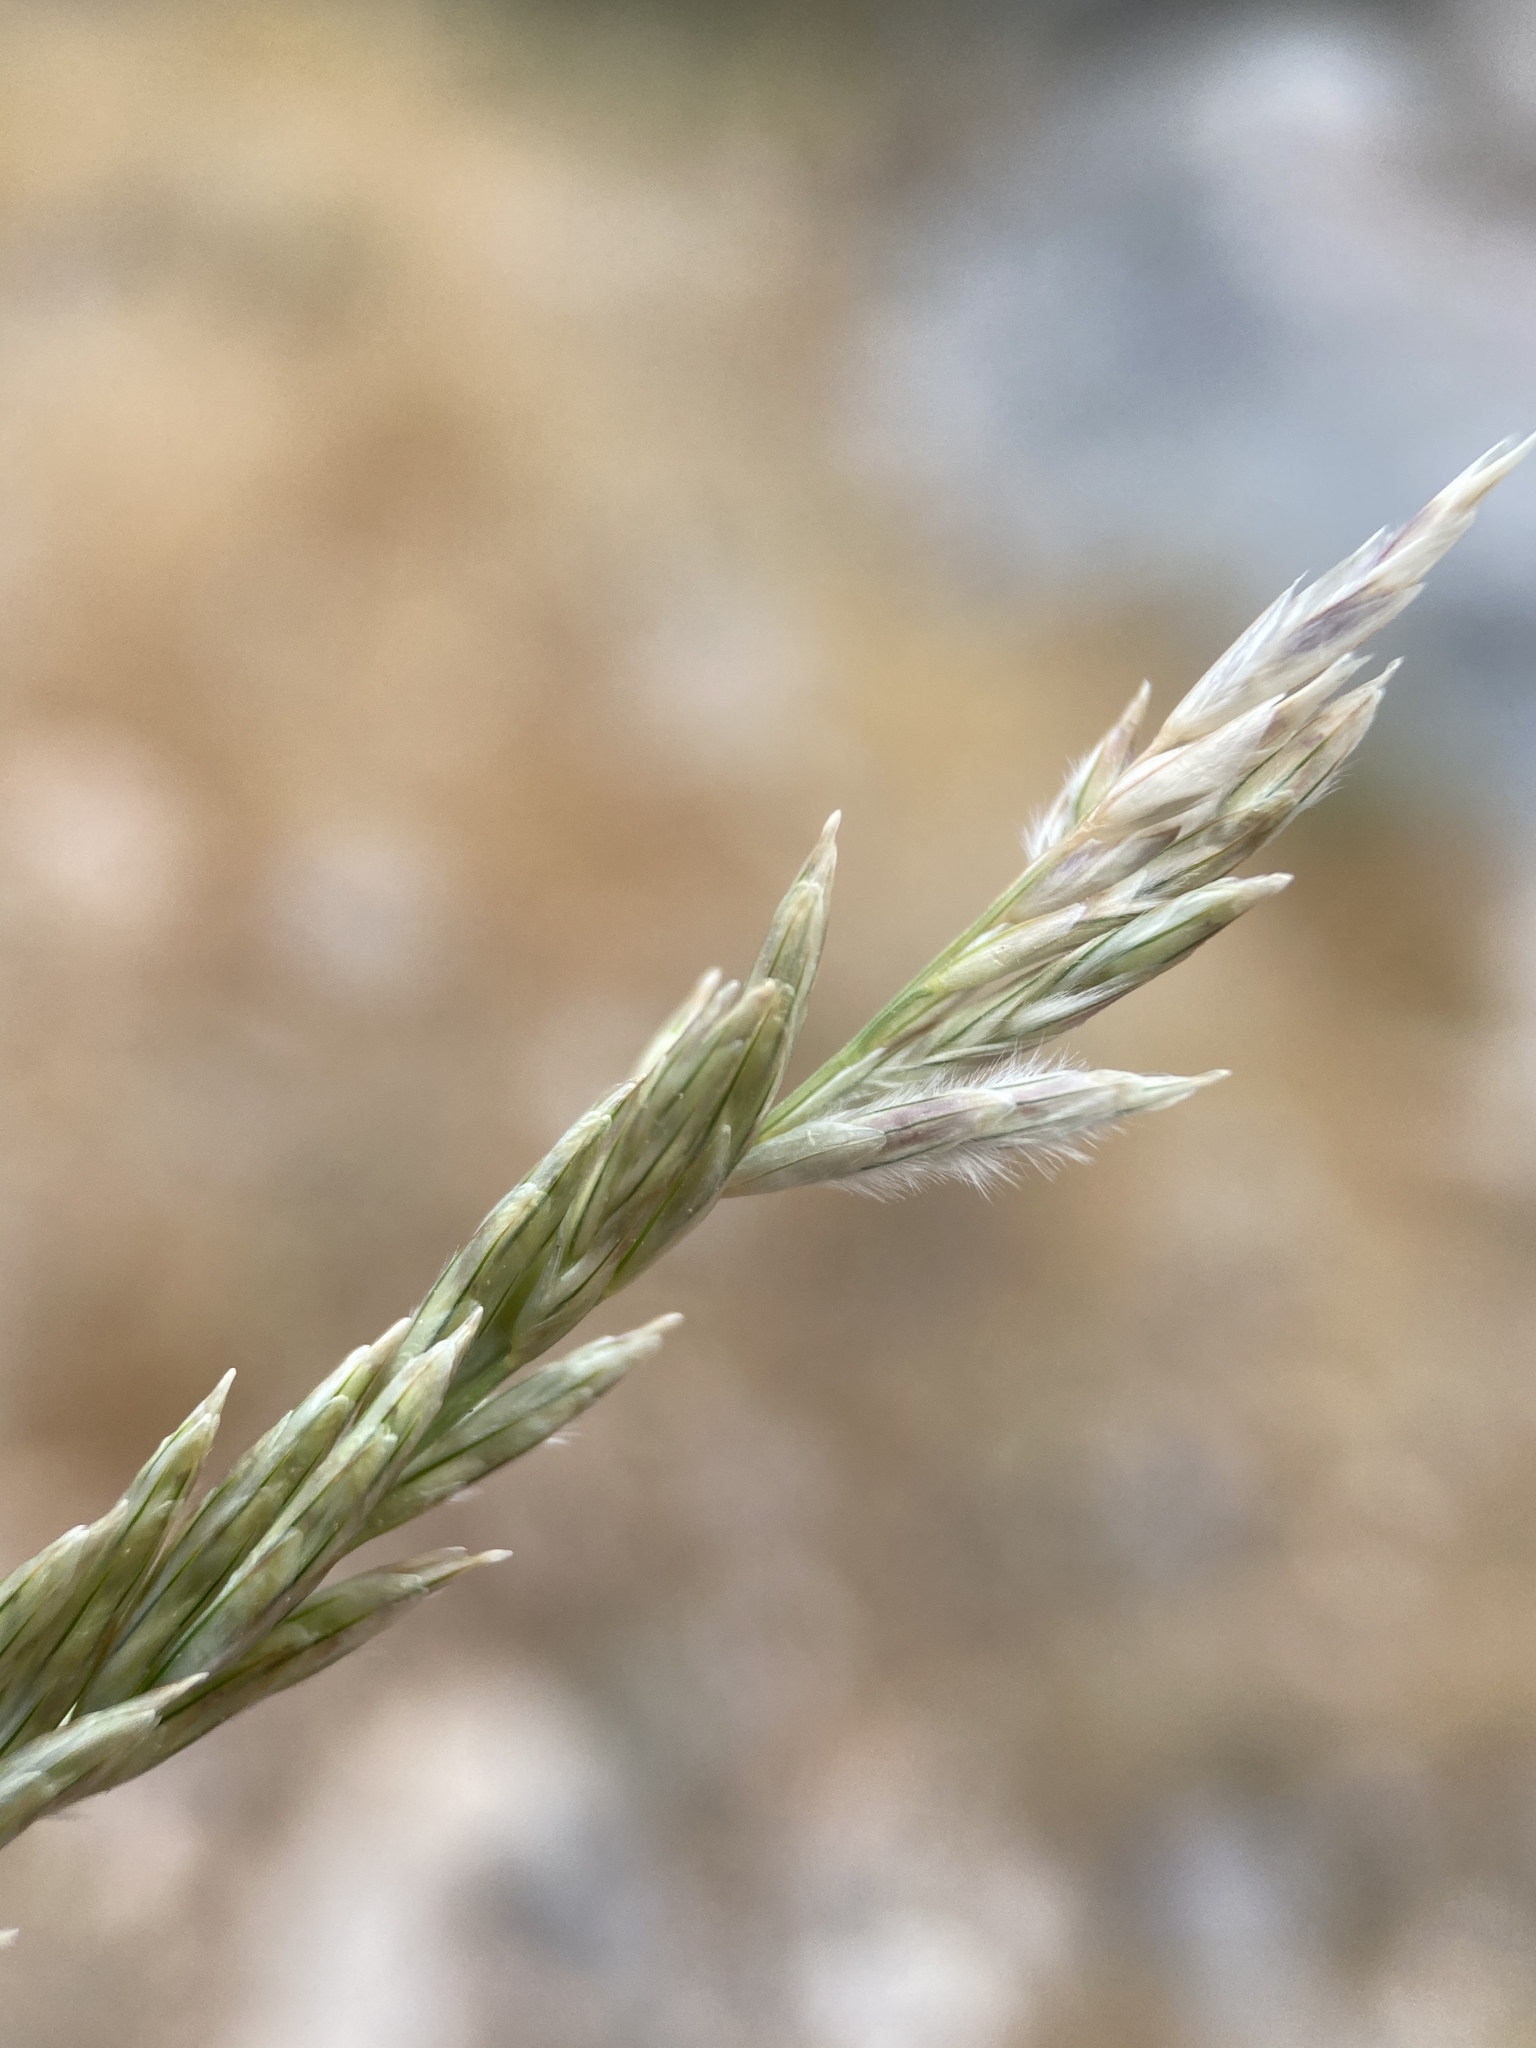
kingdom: Plantae
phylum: Tracheophyta
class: Liliopsida
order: Poales
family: Poaceae
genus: Tridentopsis
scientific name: Tridentopsis mutica
